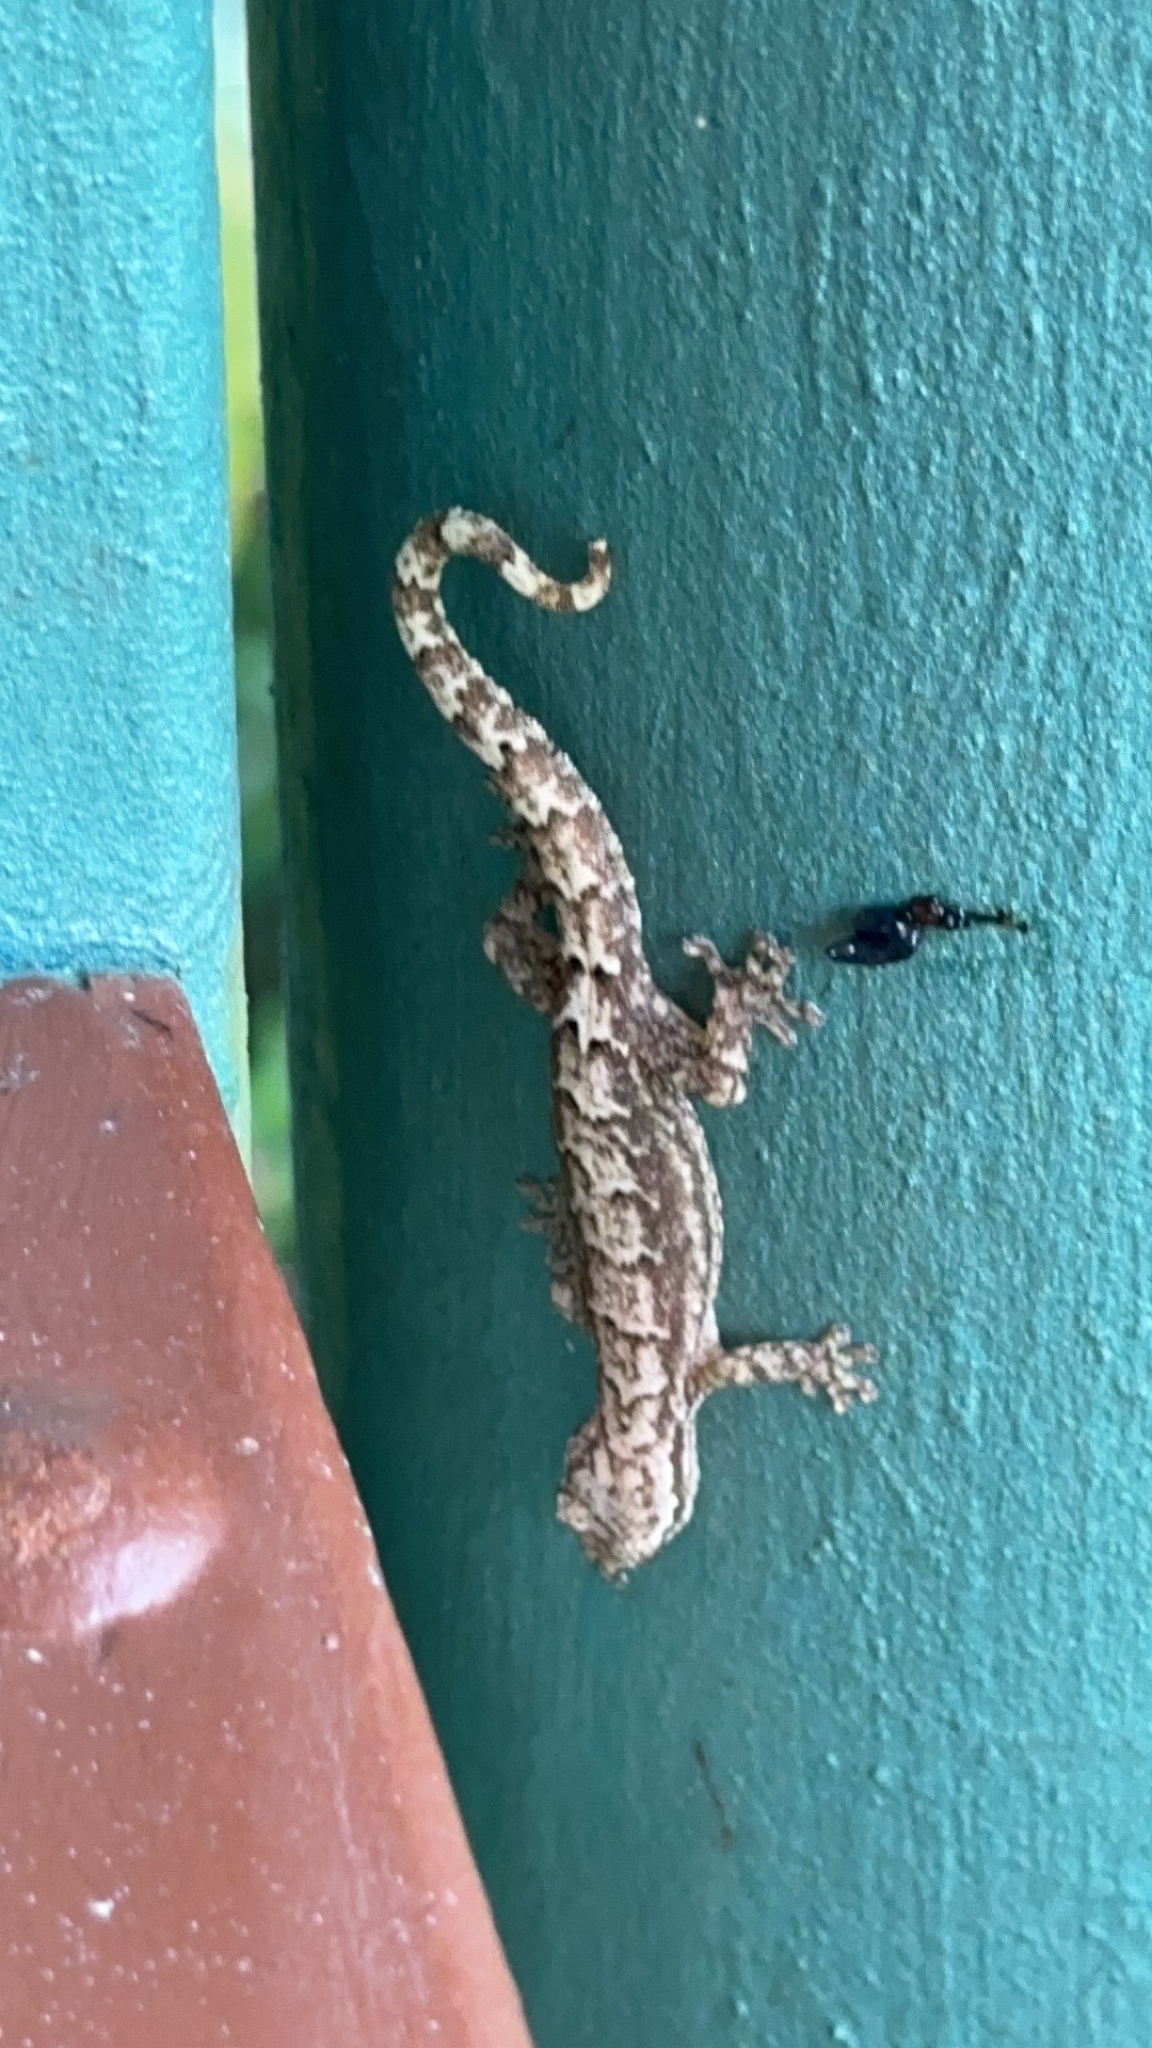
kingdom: Animalia
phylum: Chordata
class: Squamata
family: Gekkonidae
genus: Lepidodactylus
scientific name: Lepidodactylus lugubris
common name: Mourning gecko
